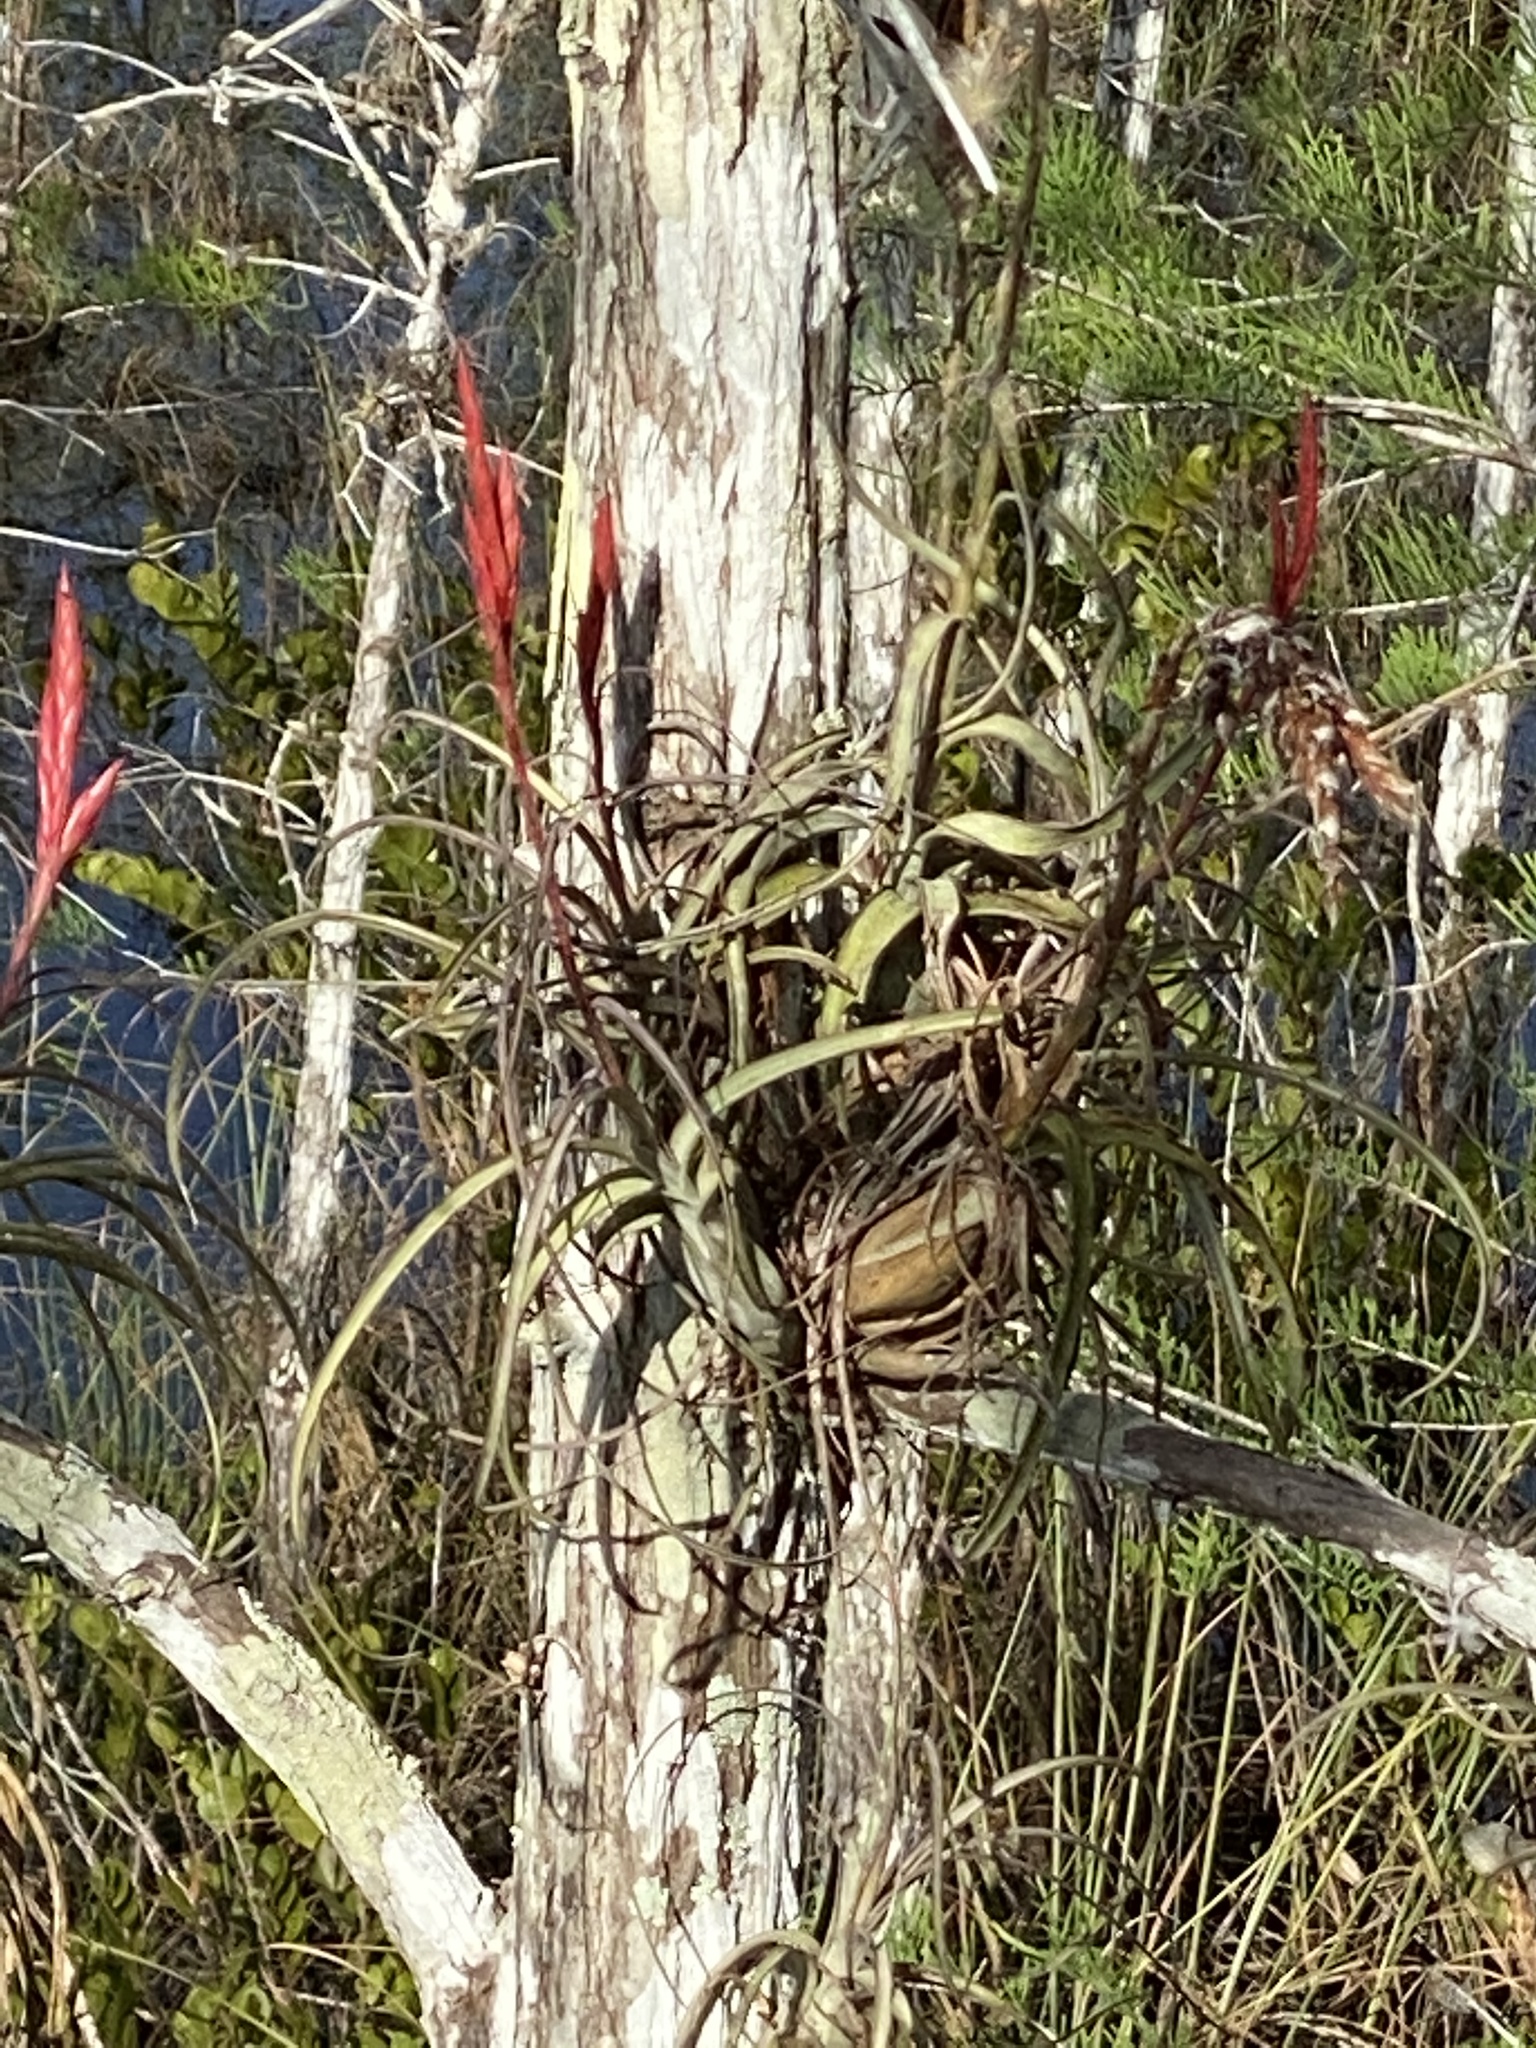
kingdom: Plantae
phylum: Tracheophyta
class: Liliopsida
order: Poales
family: Bromeliaceae
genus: Tillandsia
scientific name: Tillandsia balbisiana
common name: Northern needleleaf
